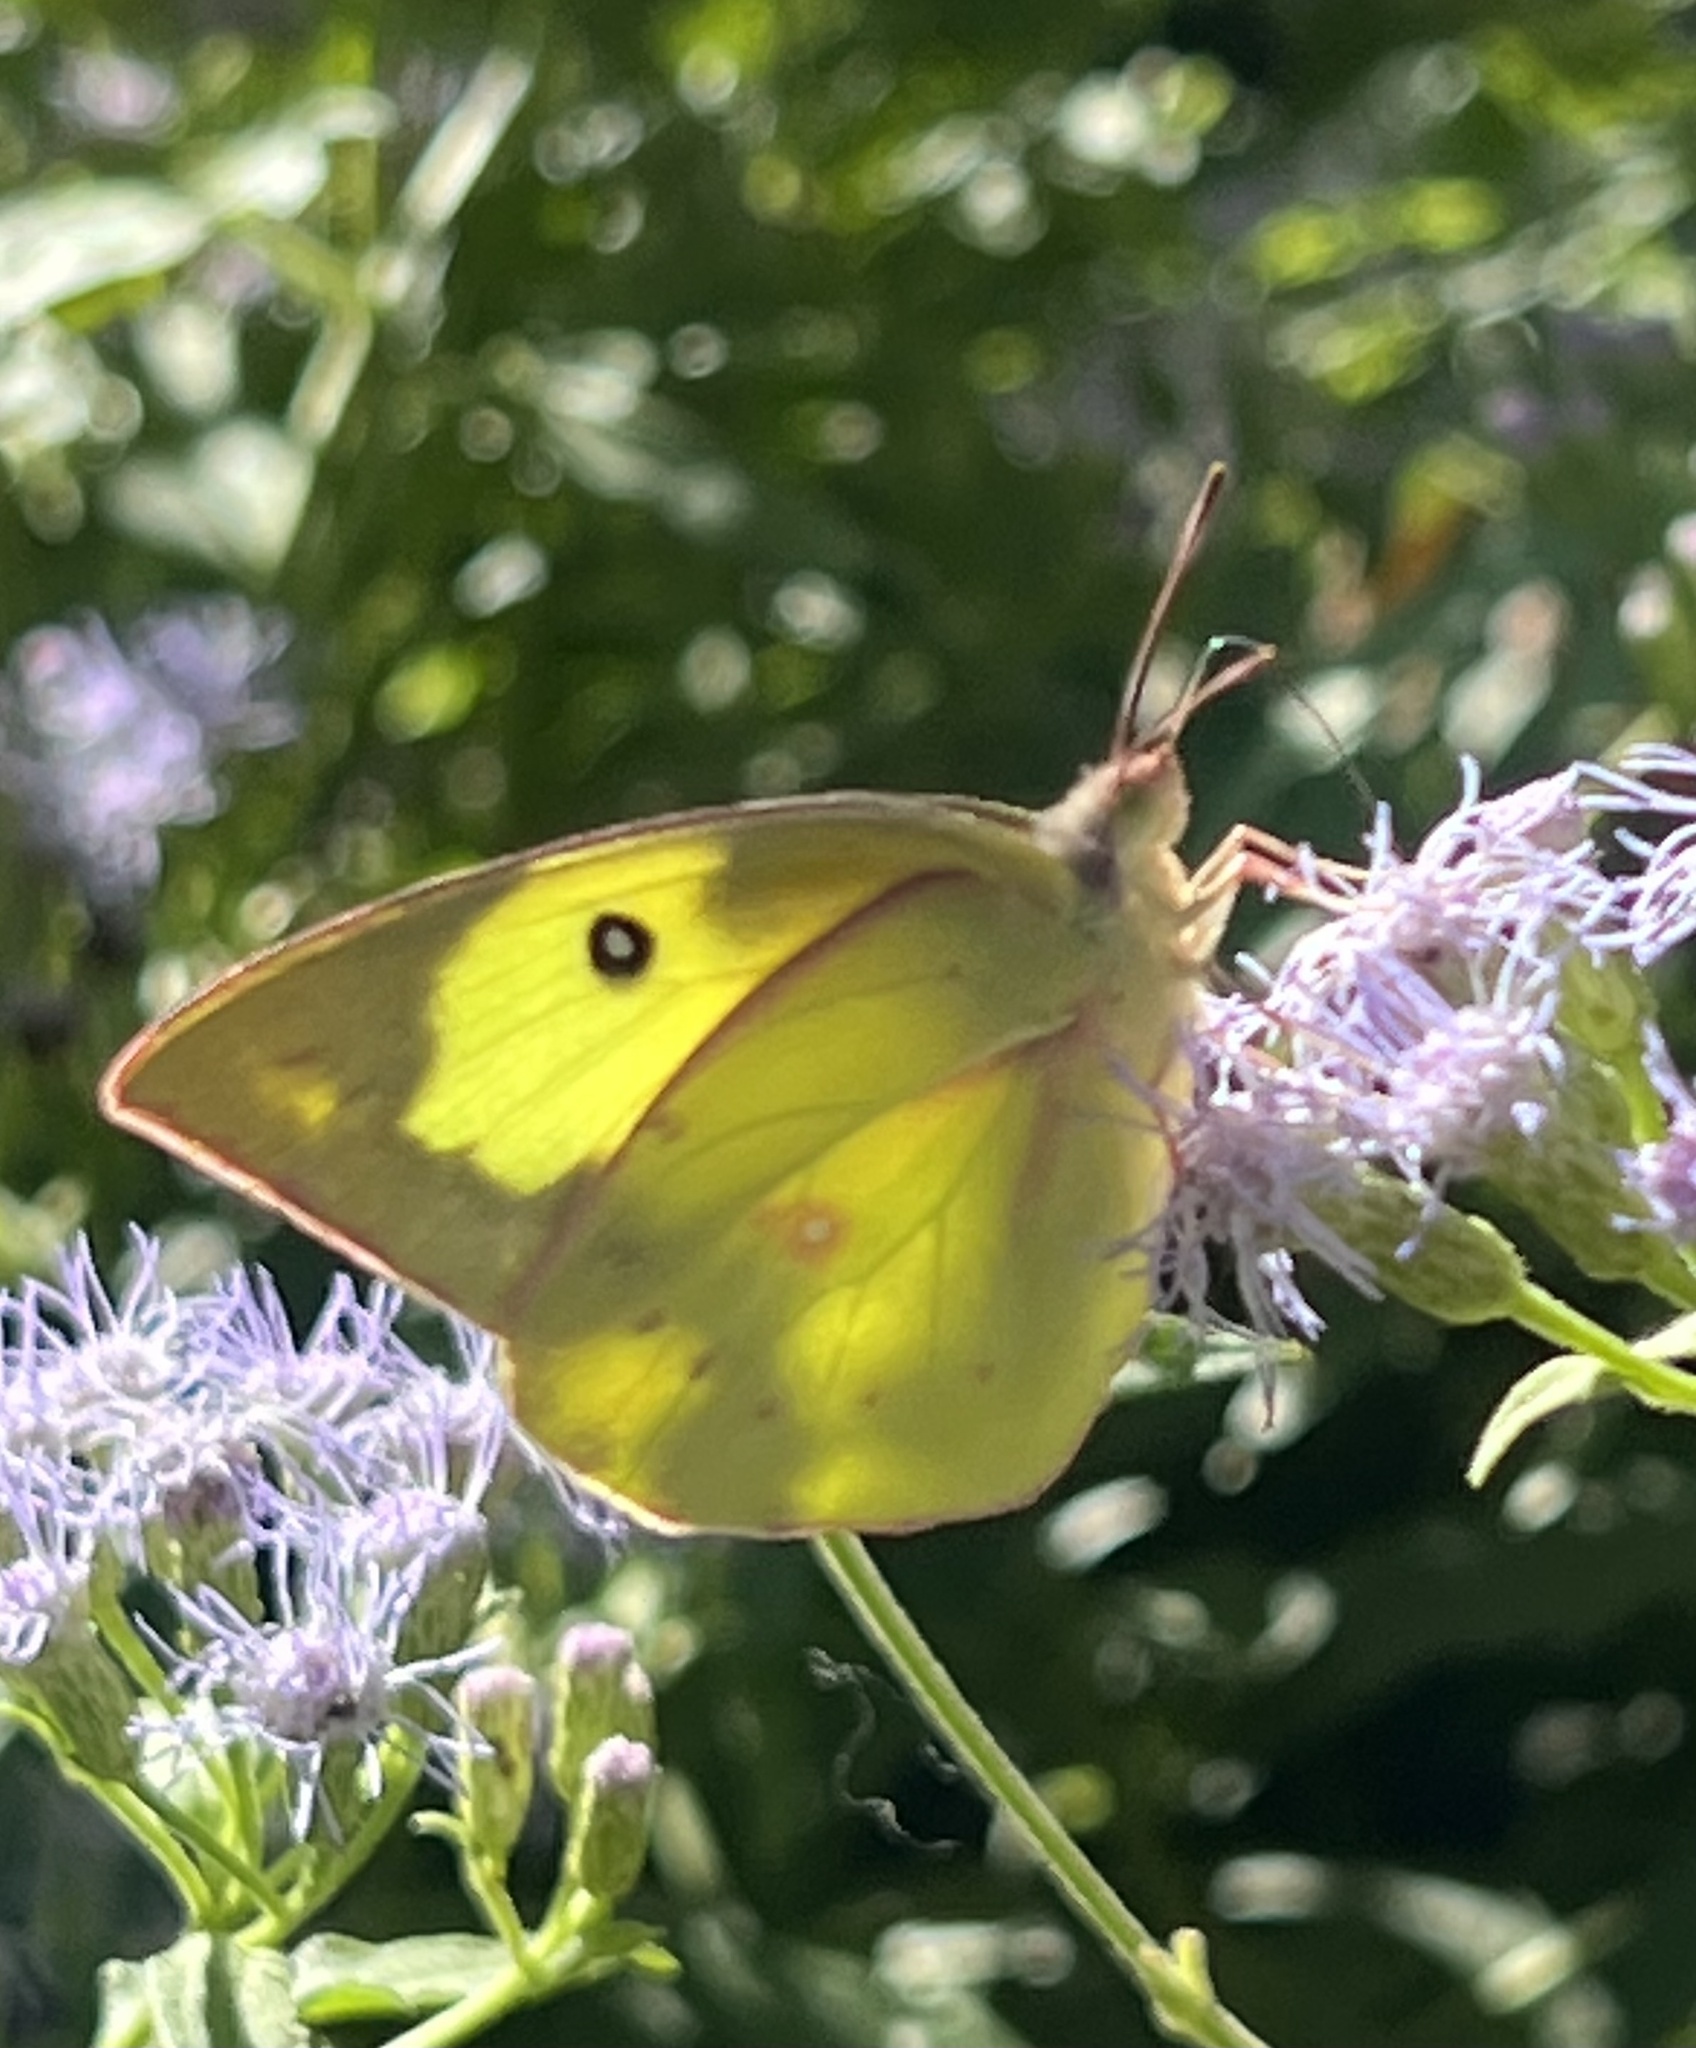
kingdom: Animalia
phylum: Arthropoda
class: Insecta
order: Lepidoptera
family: Pieridae
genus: Zerene
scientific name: Zerene cesonia
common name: Southern dogface
